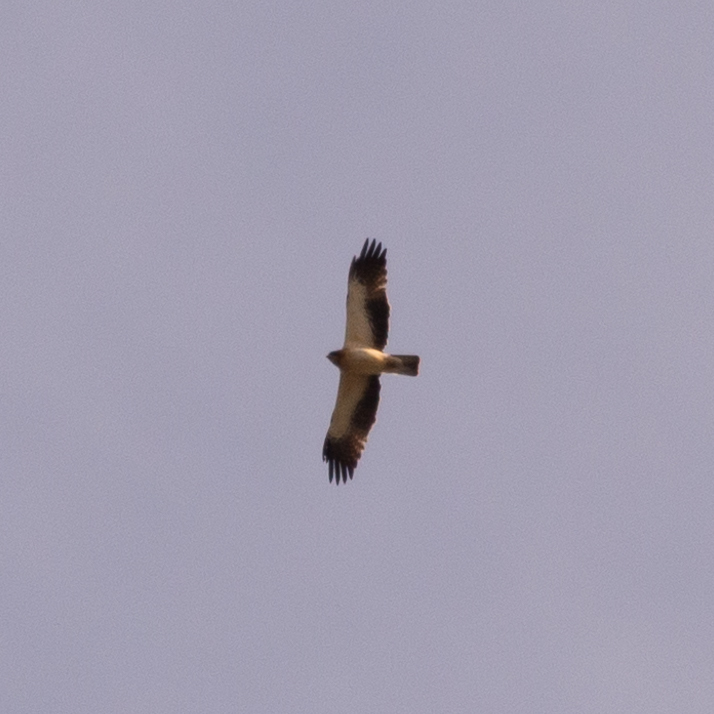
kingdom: Animalia
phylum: Chordata
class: Aves
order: Accipitriformes
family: Accipitridae
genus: Hieraaetus
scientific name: Hieraaetus pennatus
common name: Booted eagle
